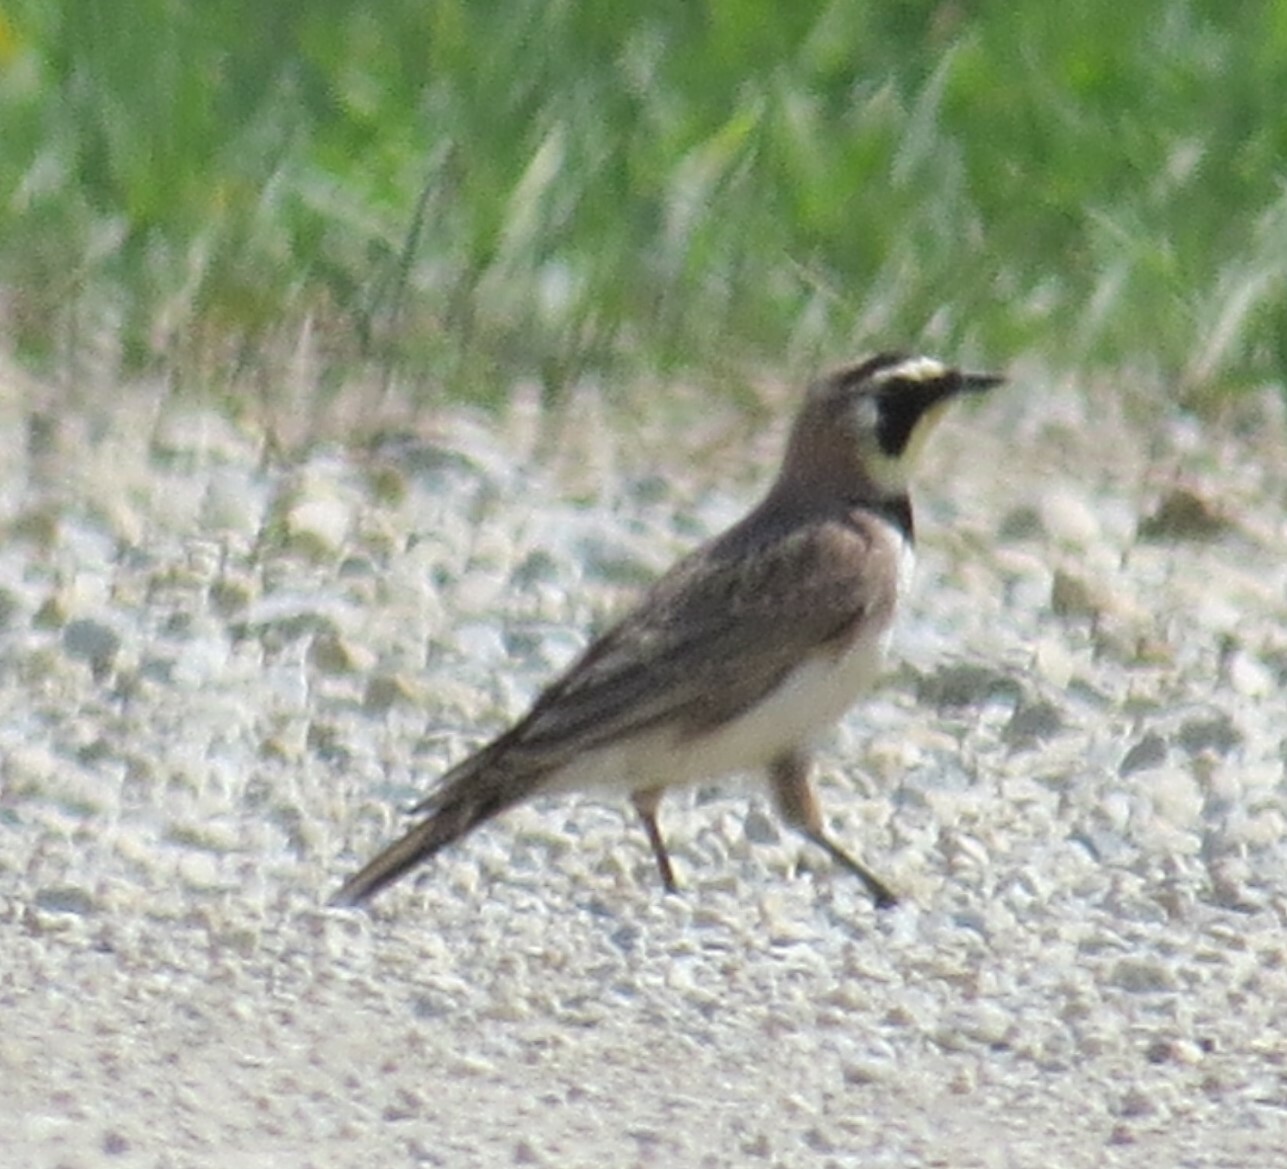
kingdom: Animalia
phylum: Chordata
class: Aves
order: Passeriformes
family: Alaudidae
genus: Eremophila
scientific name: Eremophila alpestris
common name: Horned lark
